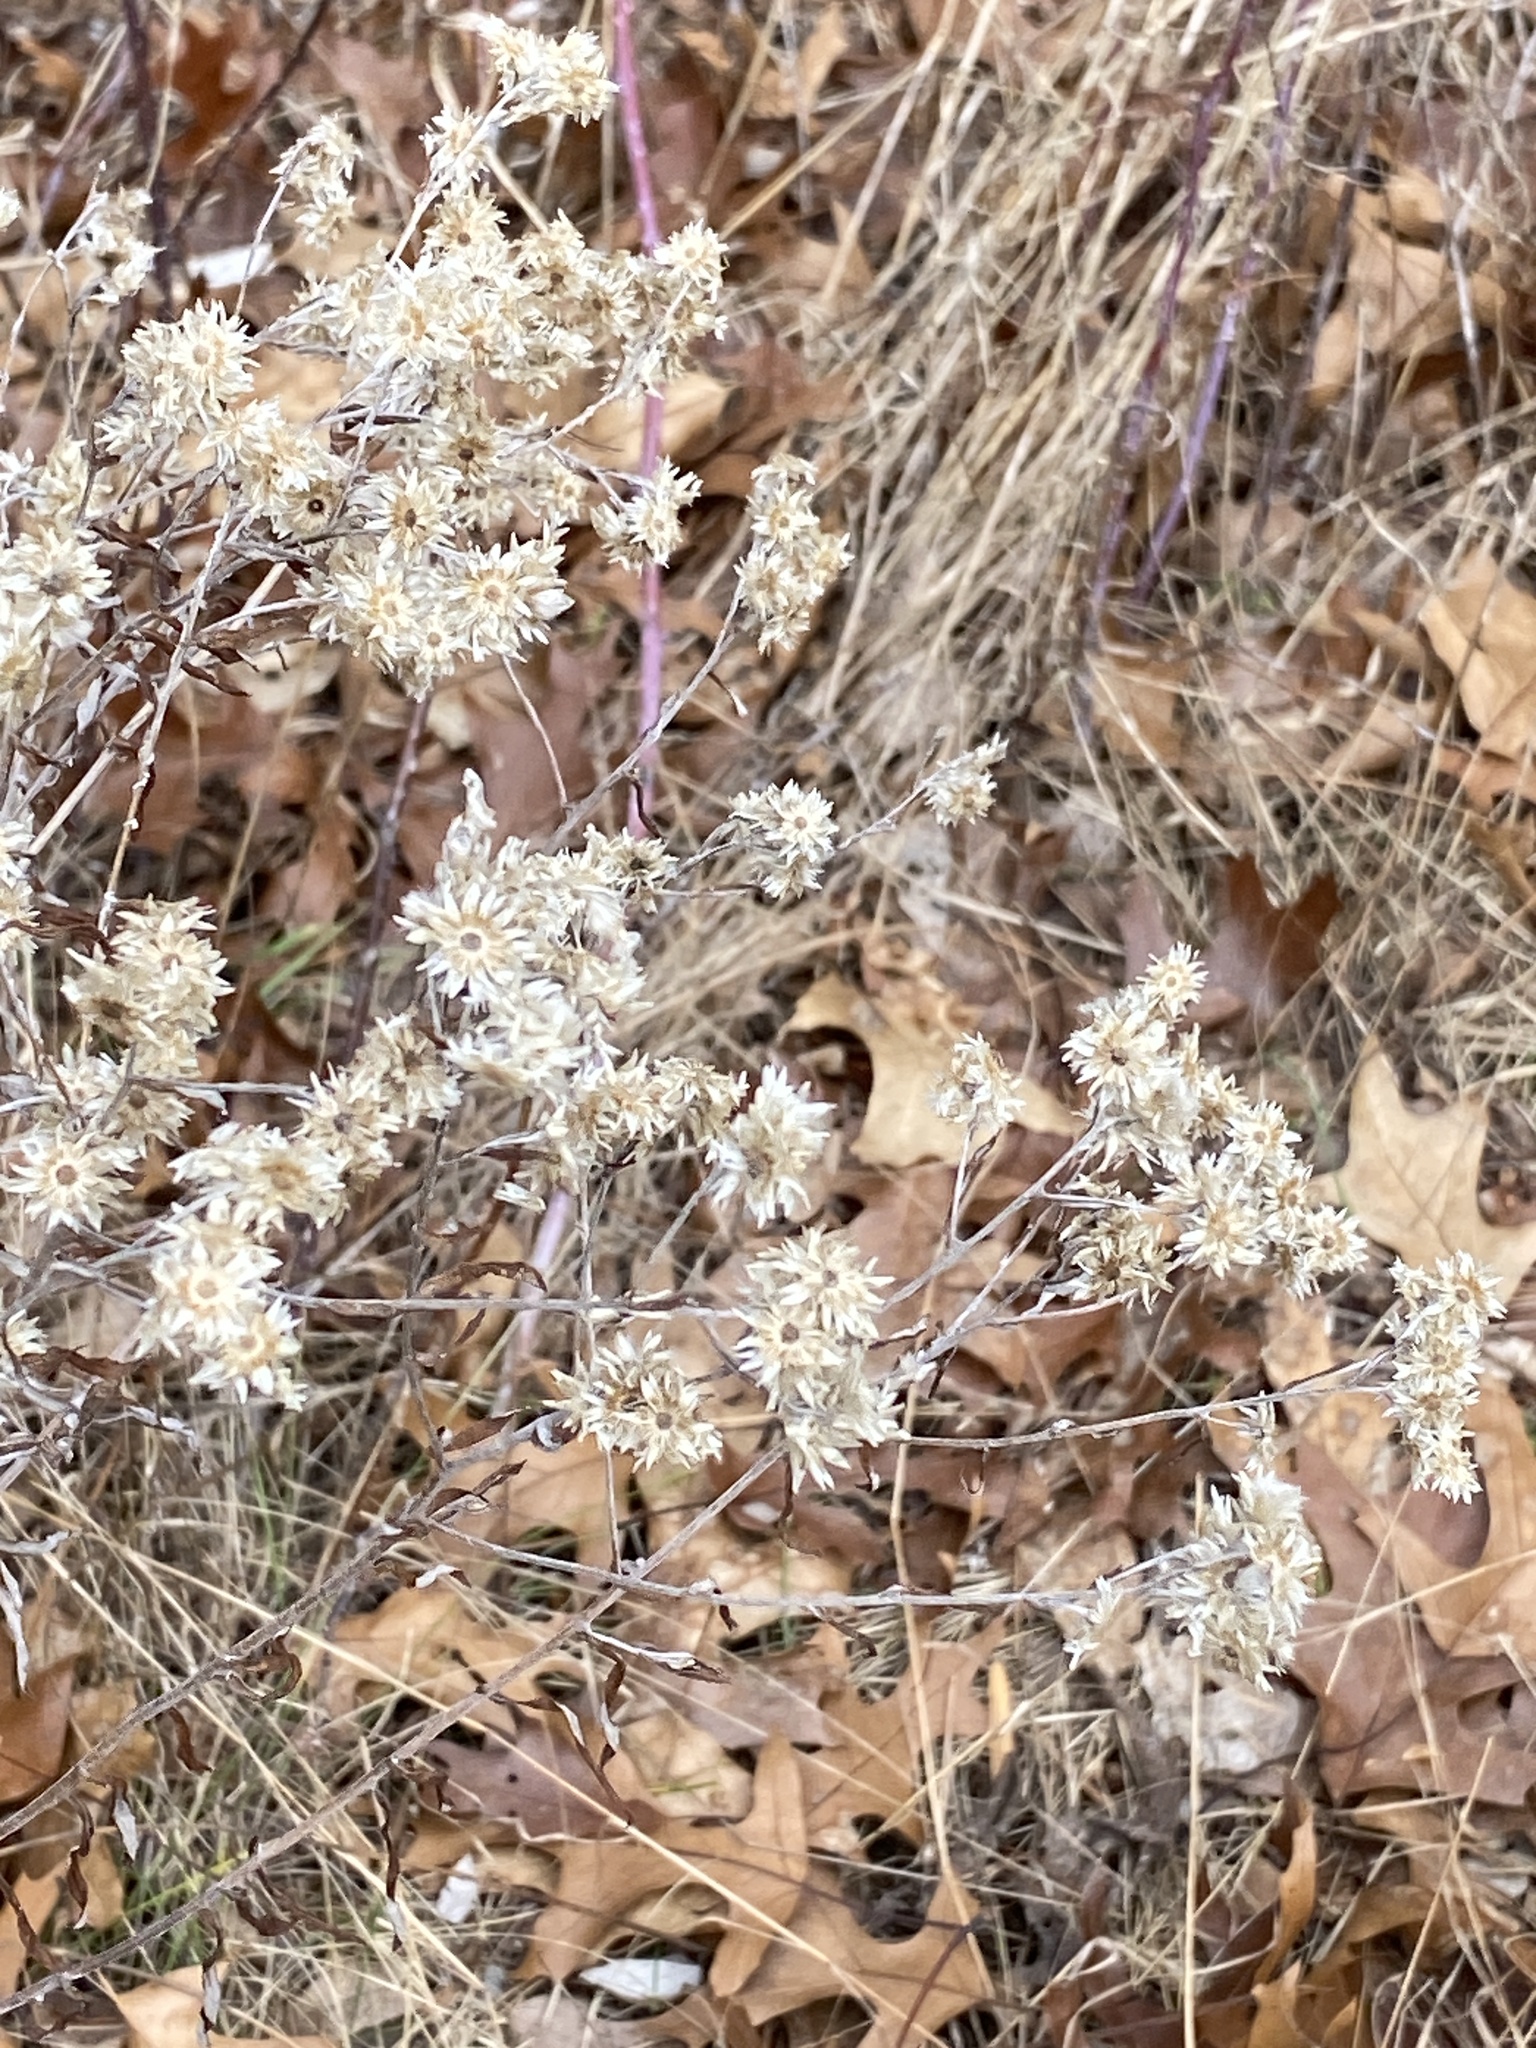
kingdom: Plantae
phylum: Tracheophyta
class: Magnoliopsida
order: Asterales
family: Asteraceae
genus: Pseudognaphalium
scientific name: Pseudognaphalium obtusifolium
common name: Eastern rabbit-tobacco
